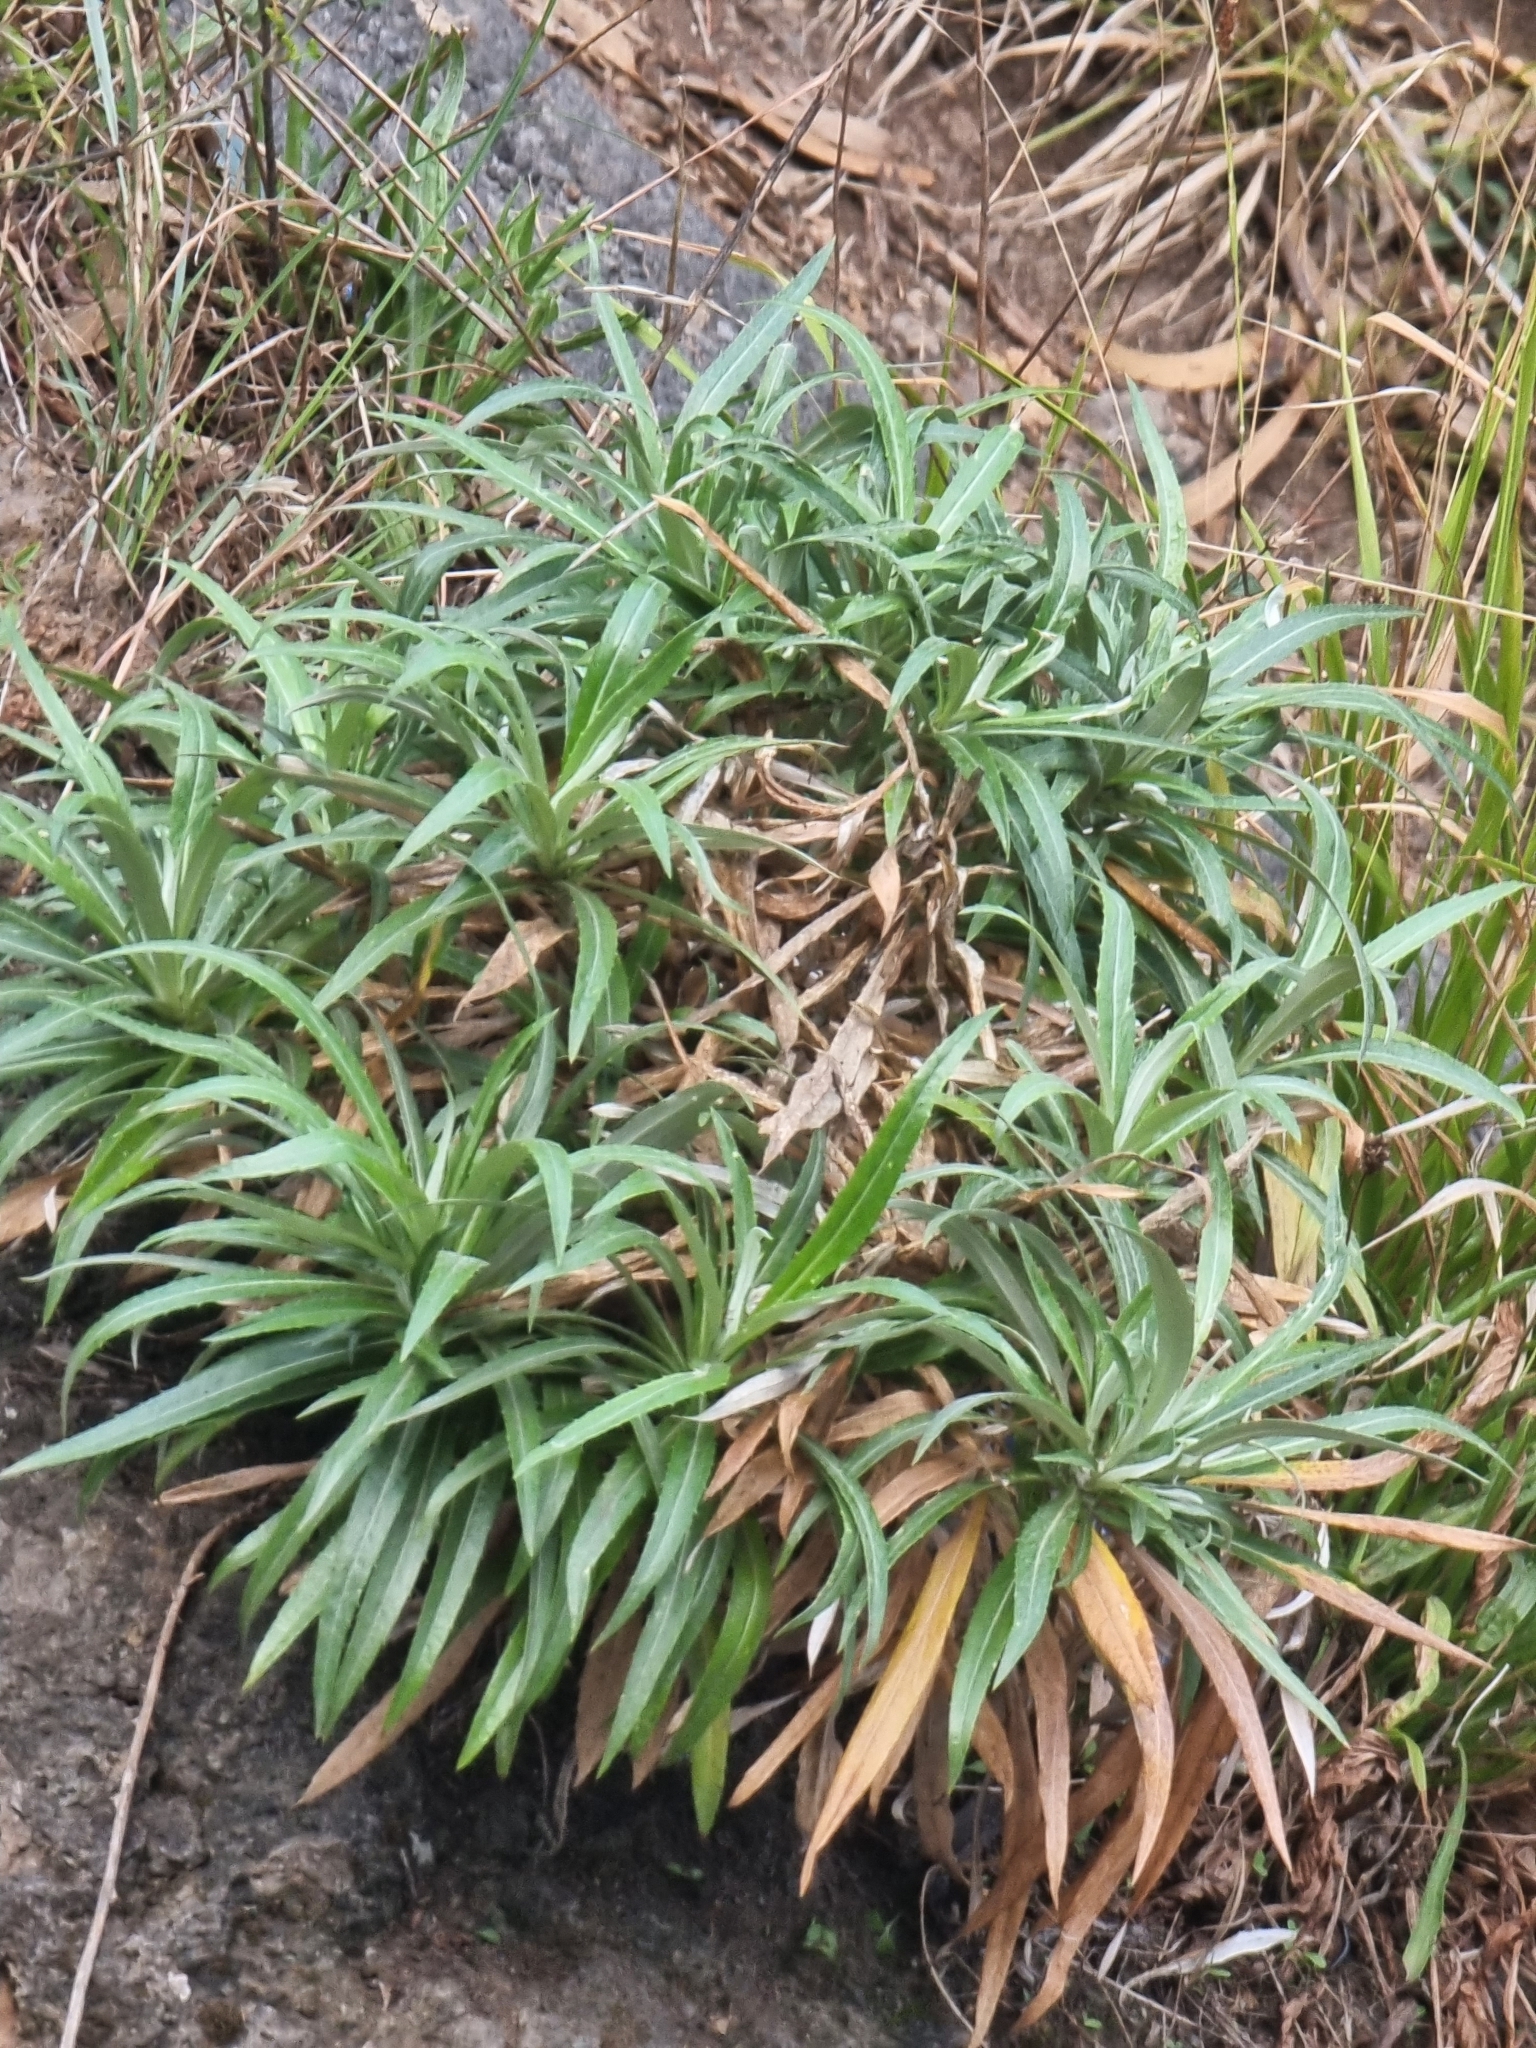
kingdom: Plantae
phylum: Tracheophyta
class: Magnoliopsida
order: Asterales
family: Asteraceae
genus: Carlina
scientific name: Carlina salicifolia
